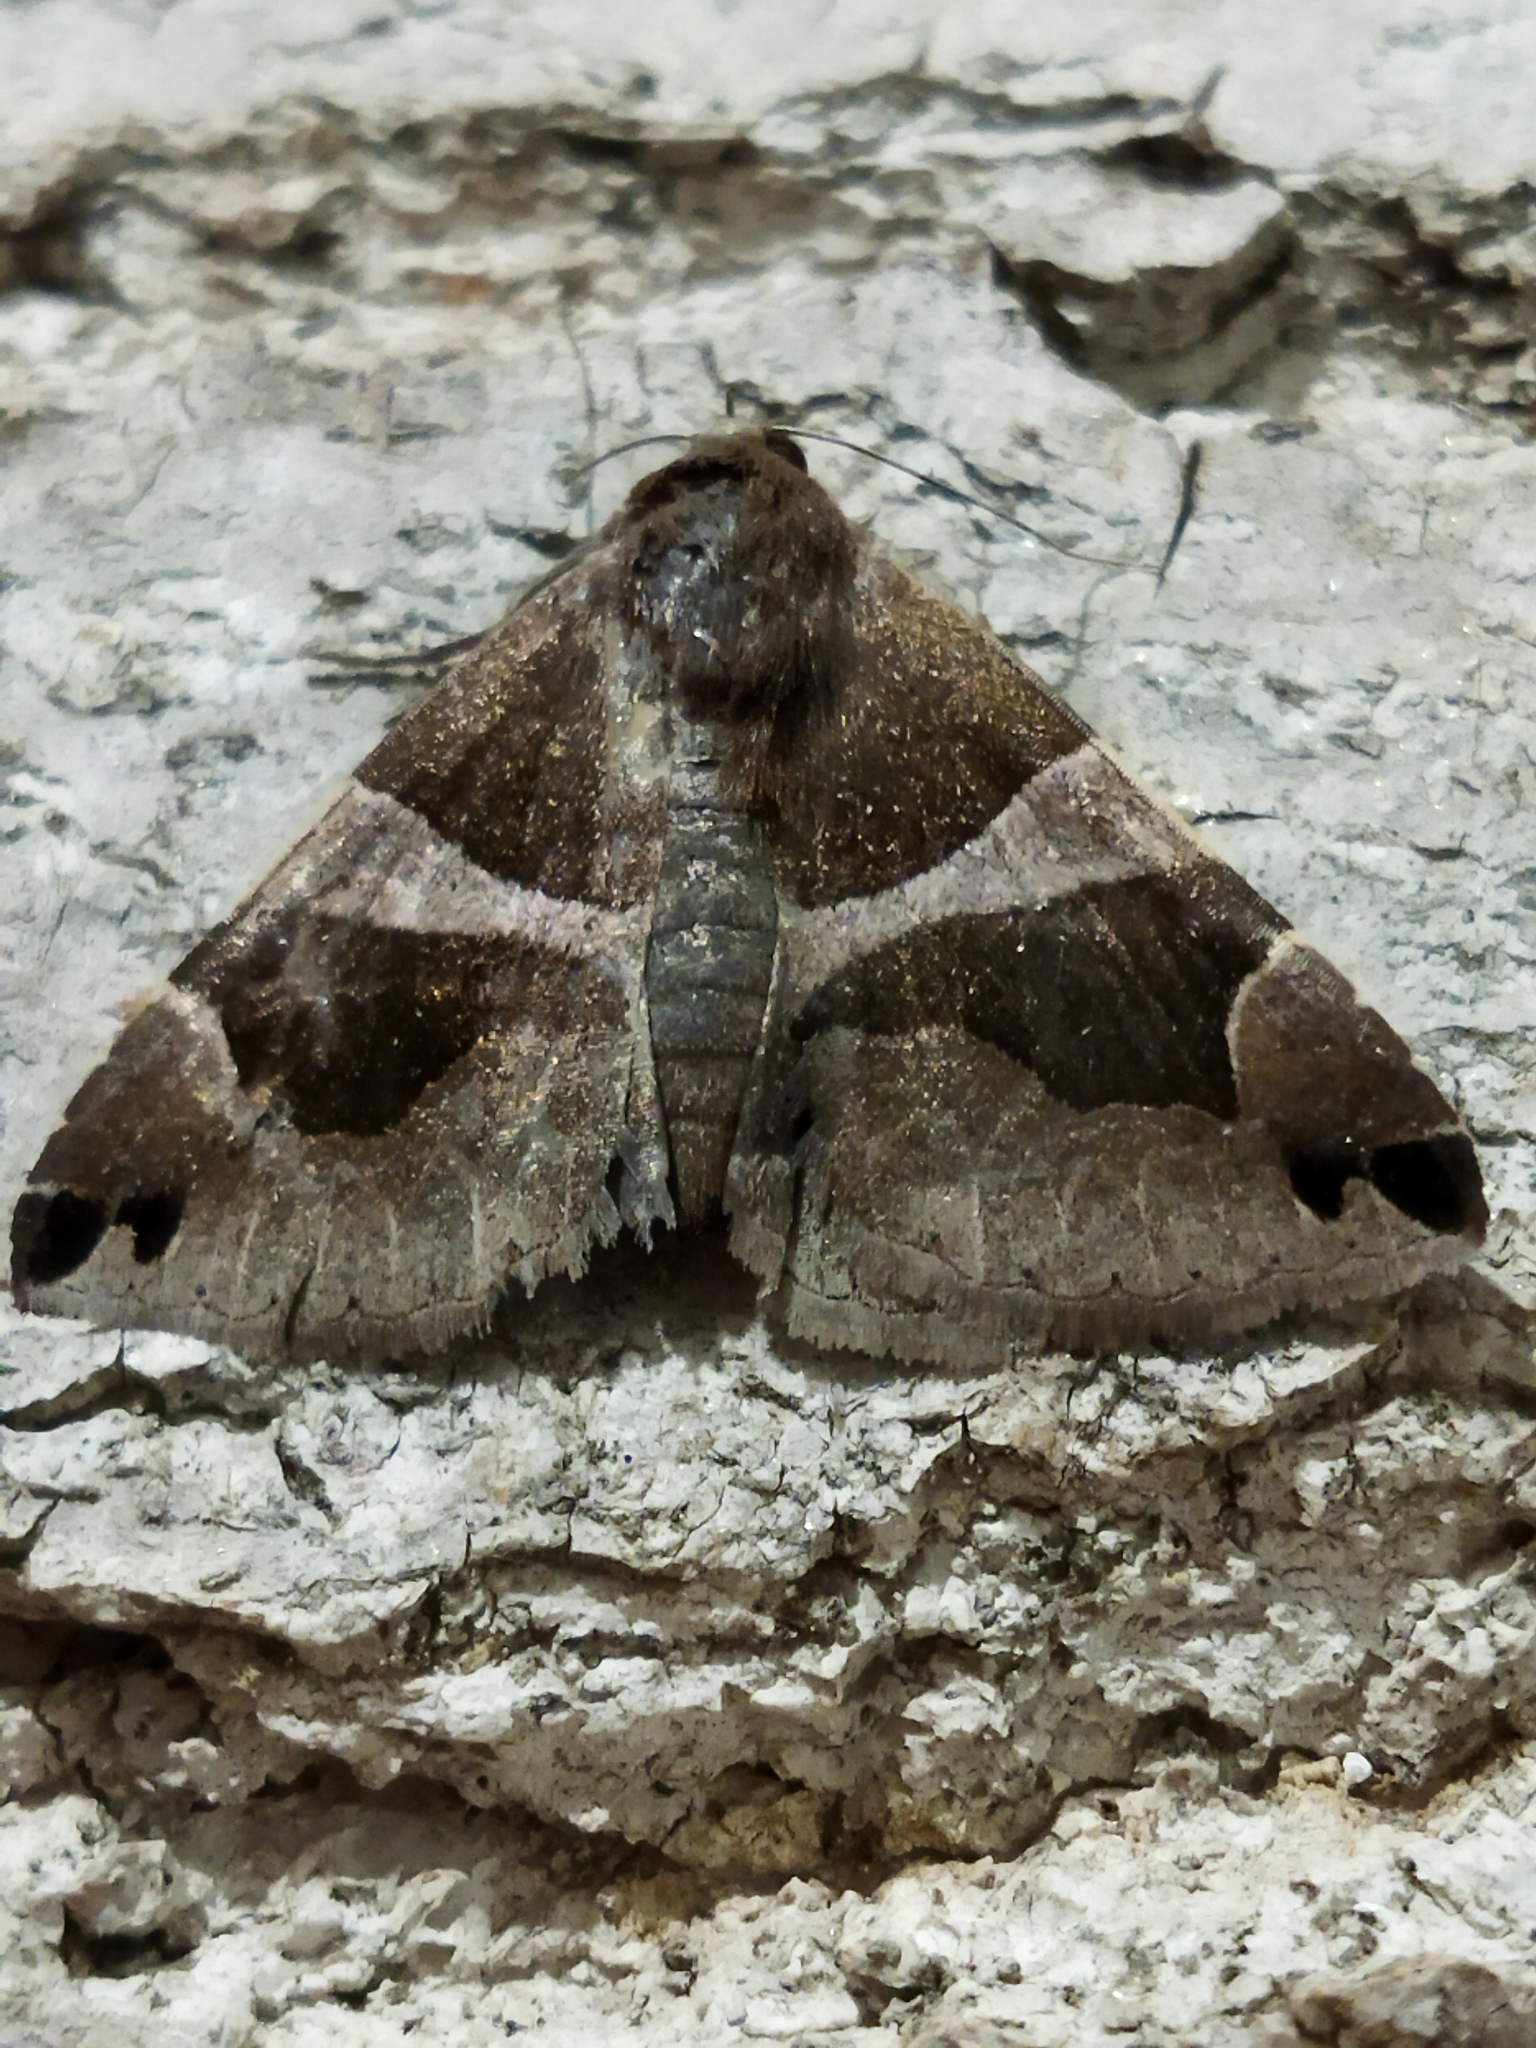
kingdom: Animalia
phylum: Arthropoda
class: Insecta
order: Lepidoptera
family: Erebidae
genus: Dysgonia
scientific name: Dysgonia algira
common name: Passenger
